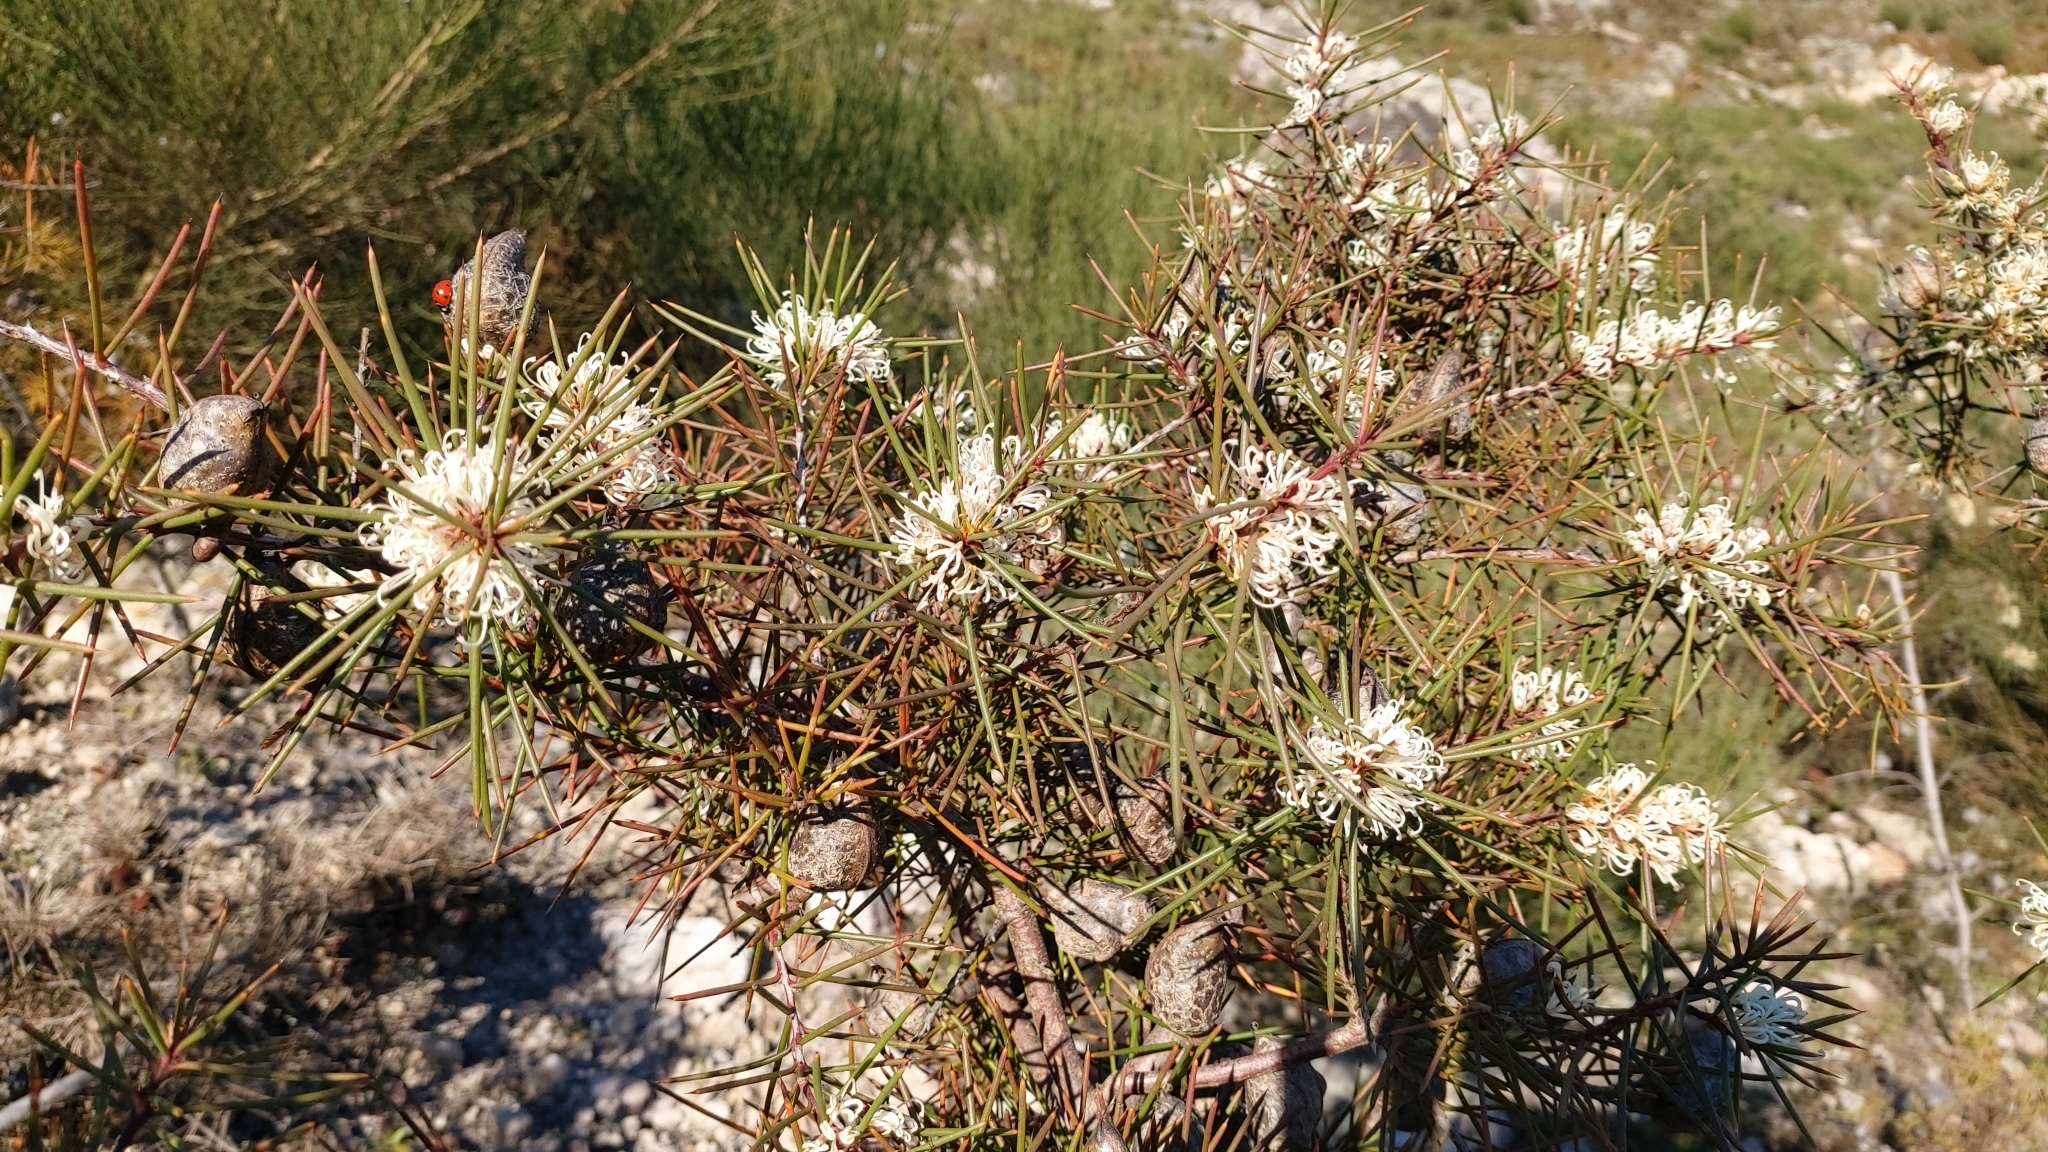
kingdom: Plantae
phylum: Tracheophyta
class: Magnoliopsida
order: Proteales
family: Proteaceae
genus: Hakea
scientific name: Hakea decurrens
